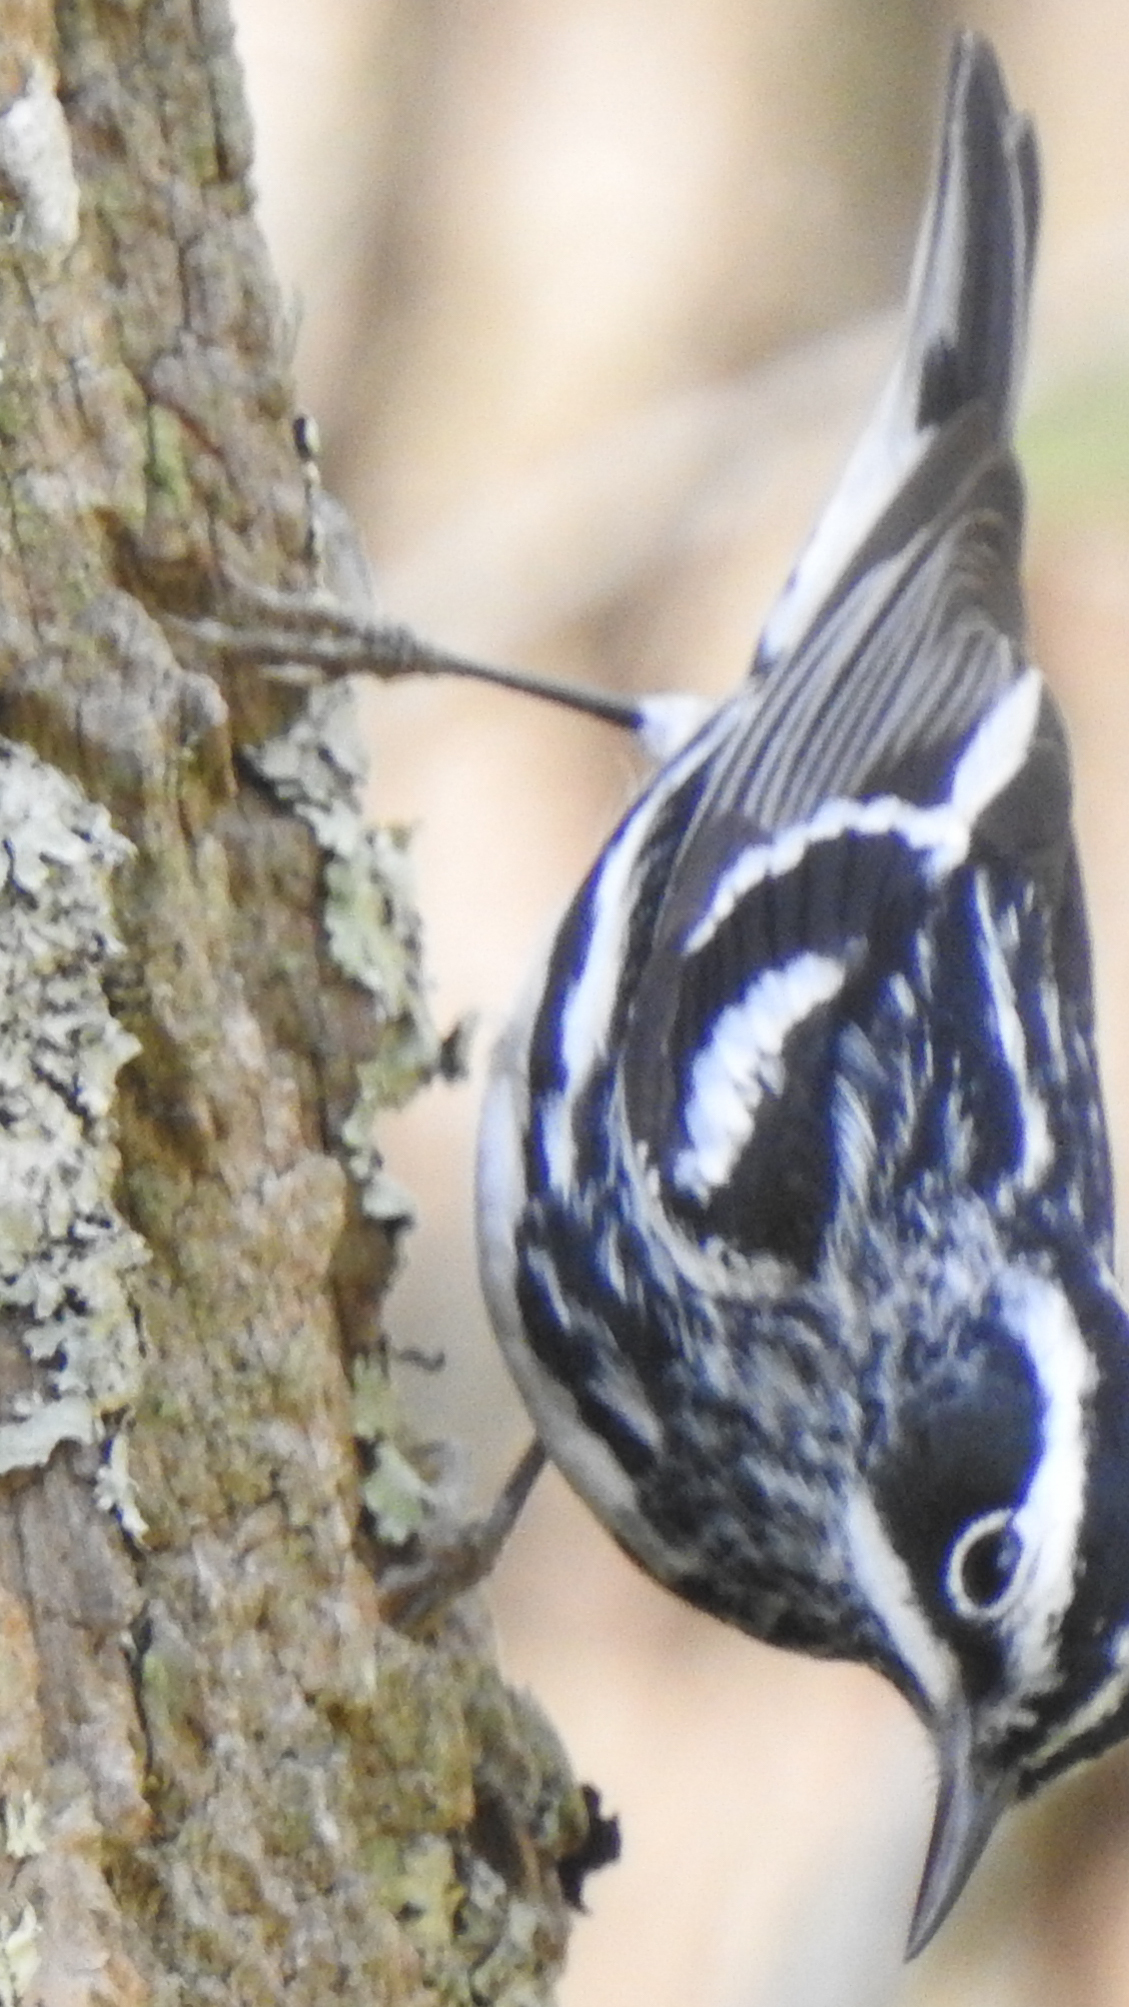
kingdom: Animalia
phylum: Chordata
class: Aves
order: Passeriformes
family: Parulidae
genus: Mniotilta
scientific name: Mniotilta varia
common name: Black-and-white warbler
